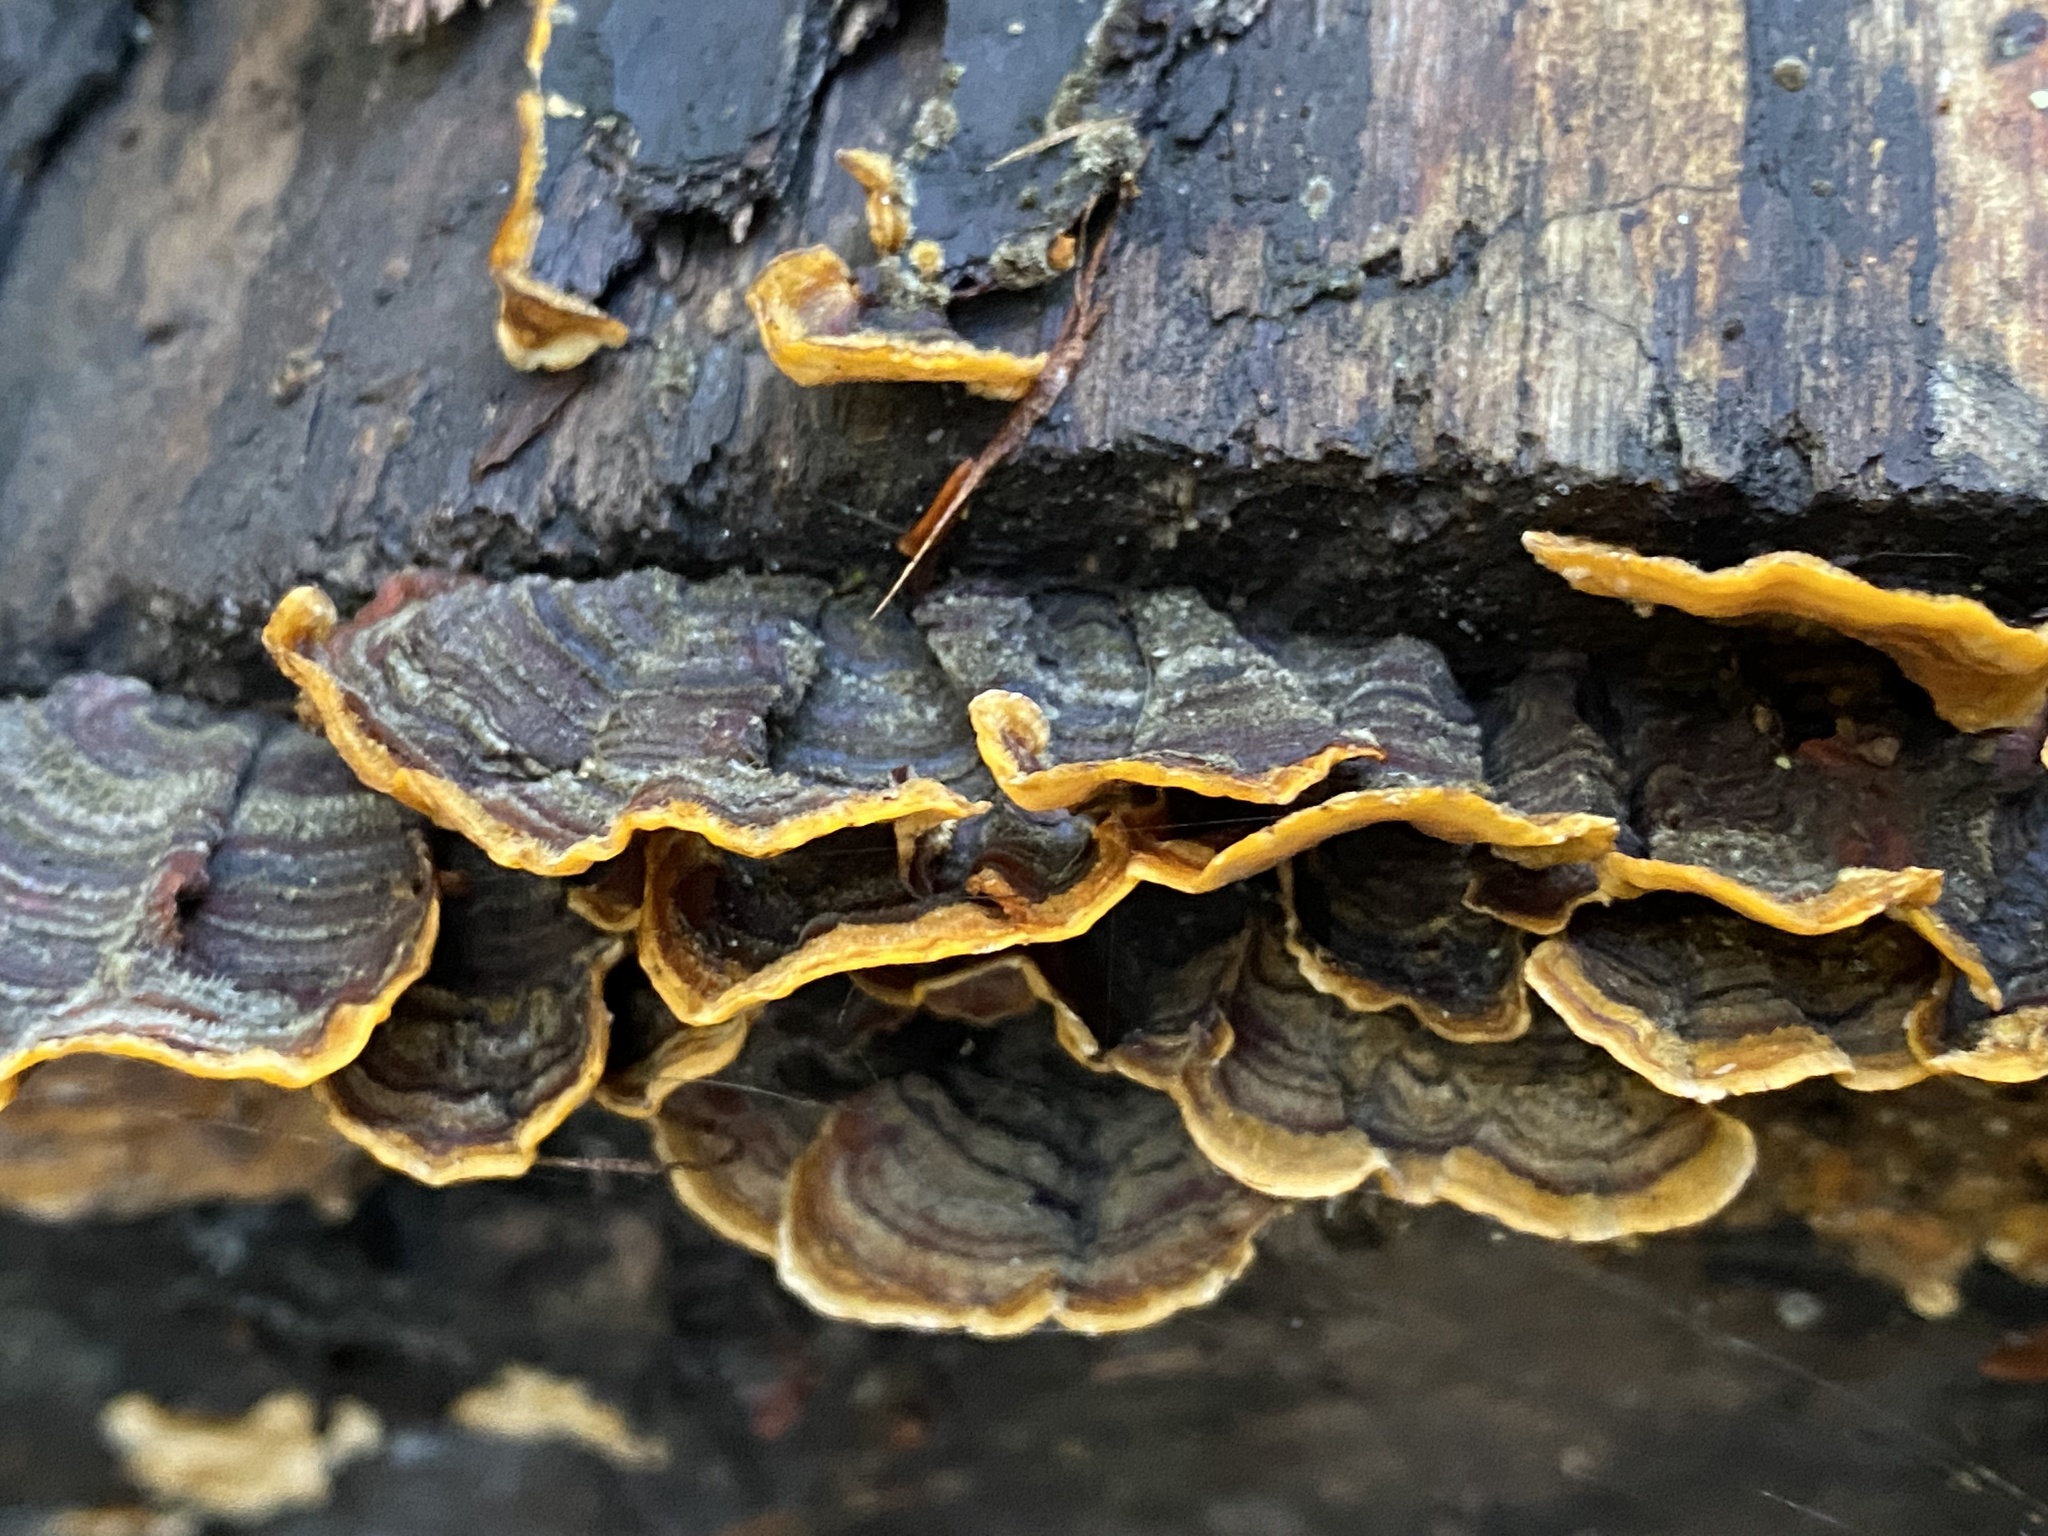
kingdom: Fungi
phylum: Basidiomycota
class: Agaricomycetes
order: Russulales
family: Stereaceae
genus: Stereum
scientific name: Stereum hirsutum
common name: Hairy curtain crust
